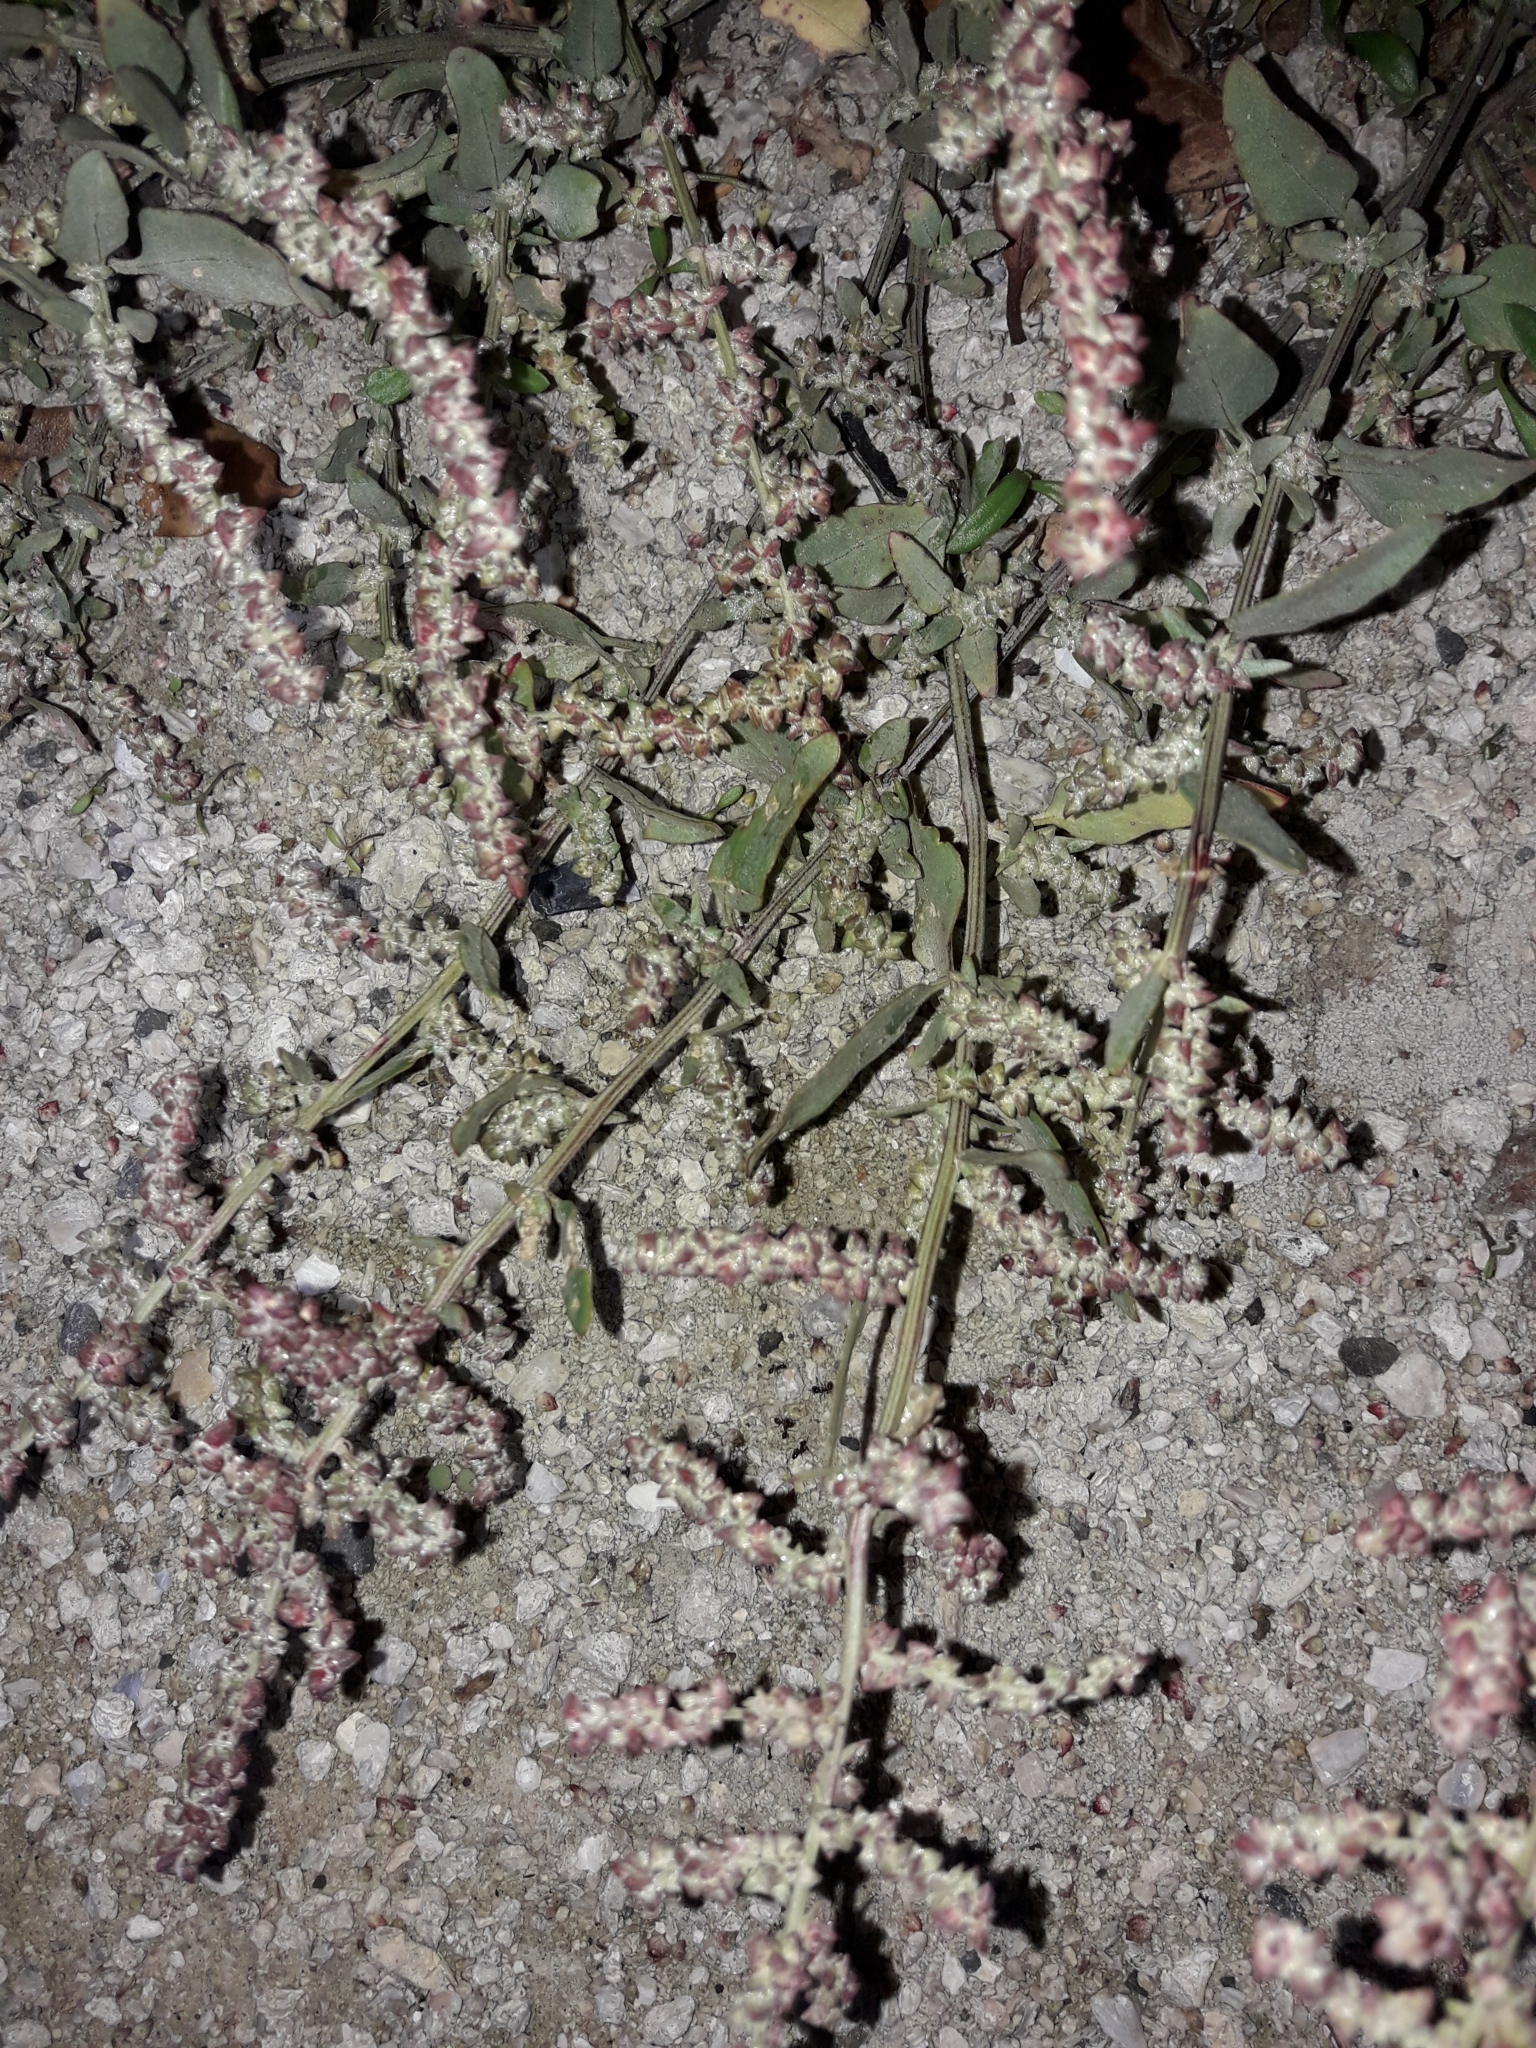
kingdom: Plantae
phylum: Tracheophyta
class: Magnoliopsida
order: Caryophyllales
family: Amaranthaceae
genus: Atriplex
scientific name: Atriplex prostrata
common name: Spear-leaved orache
